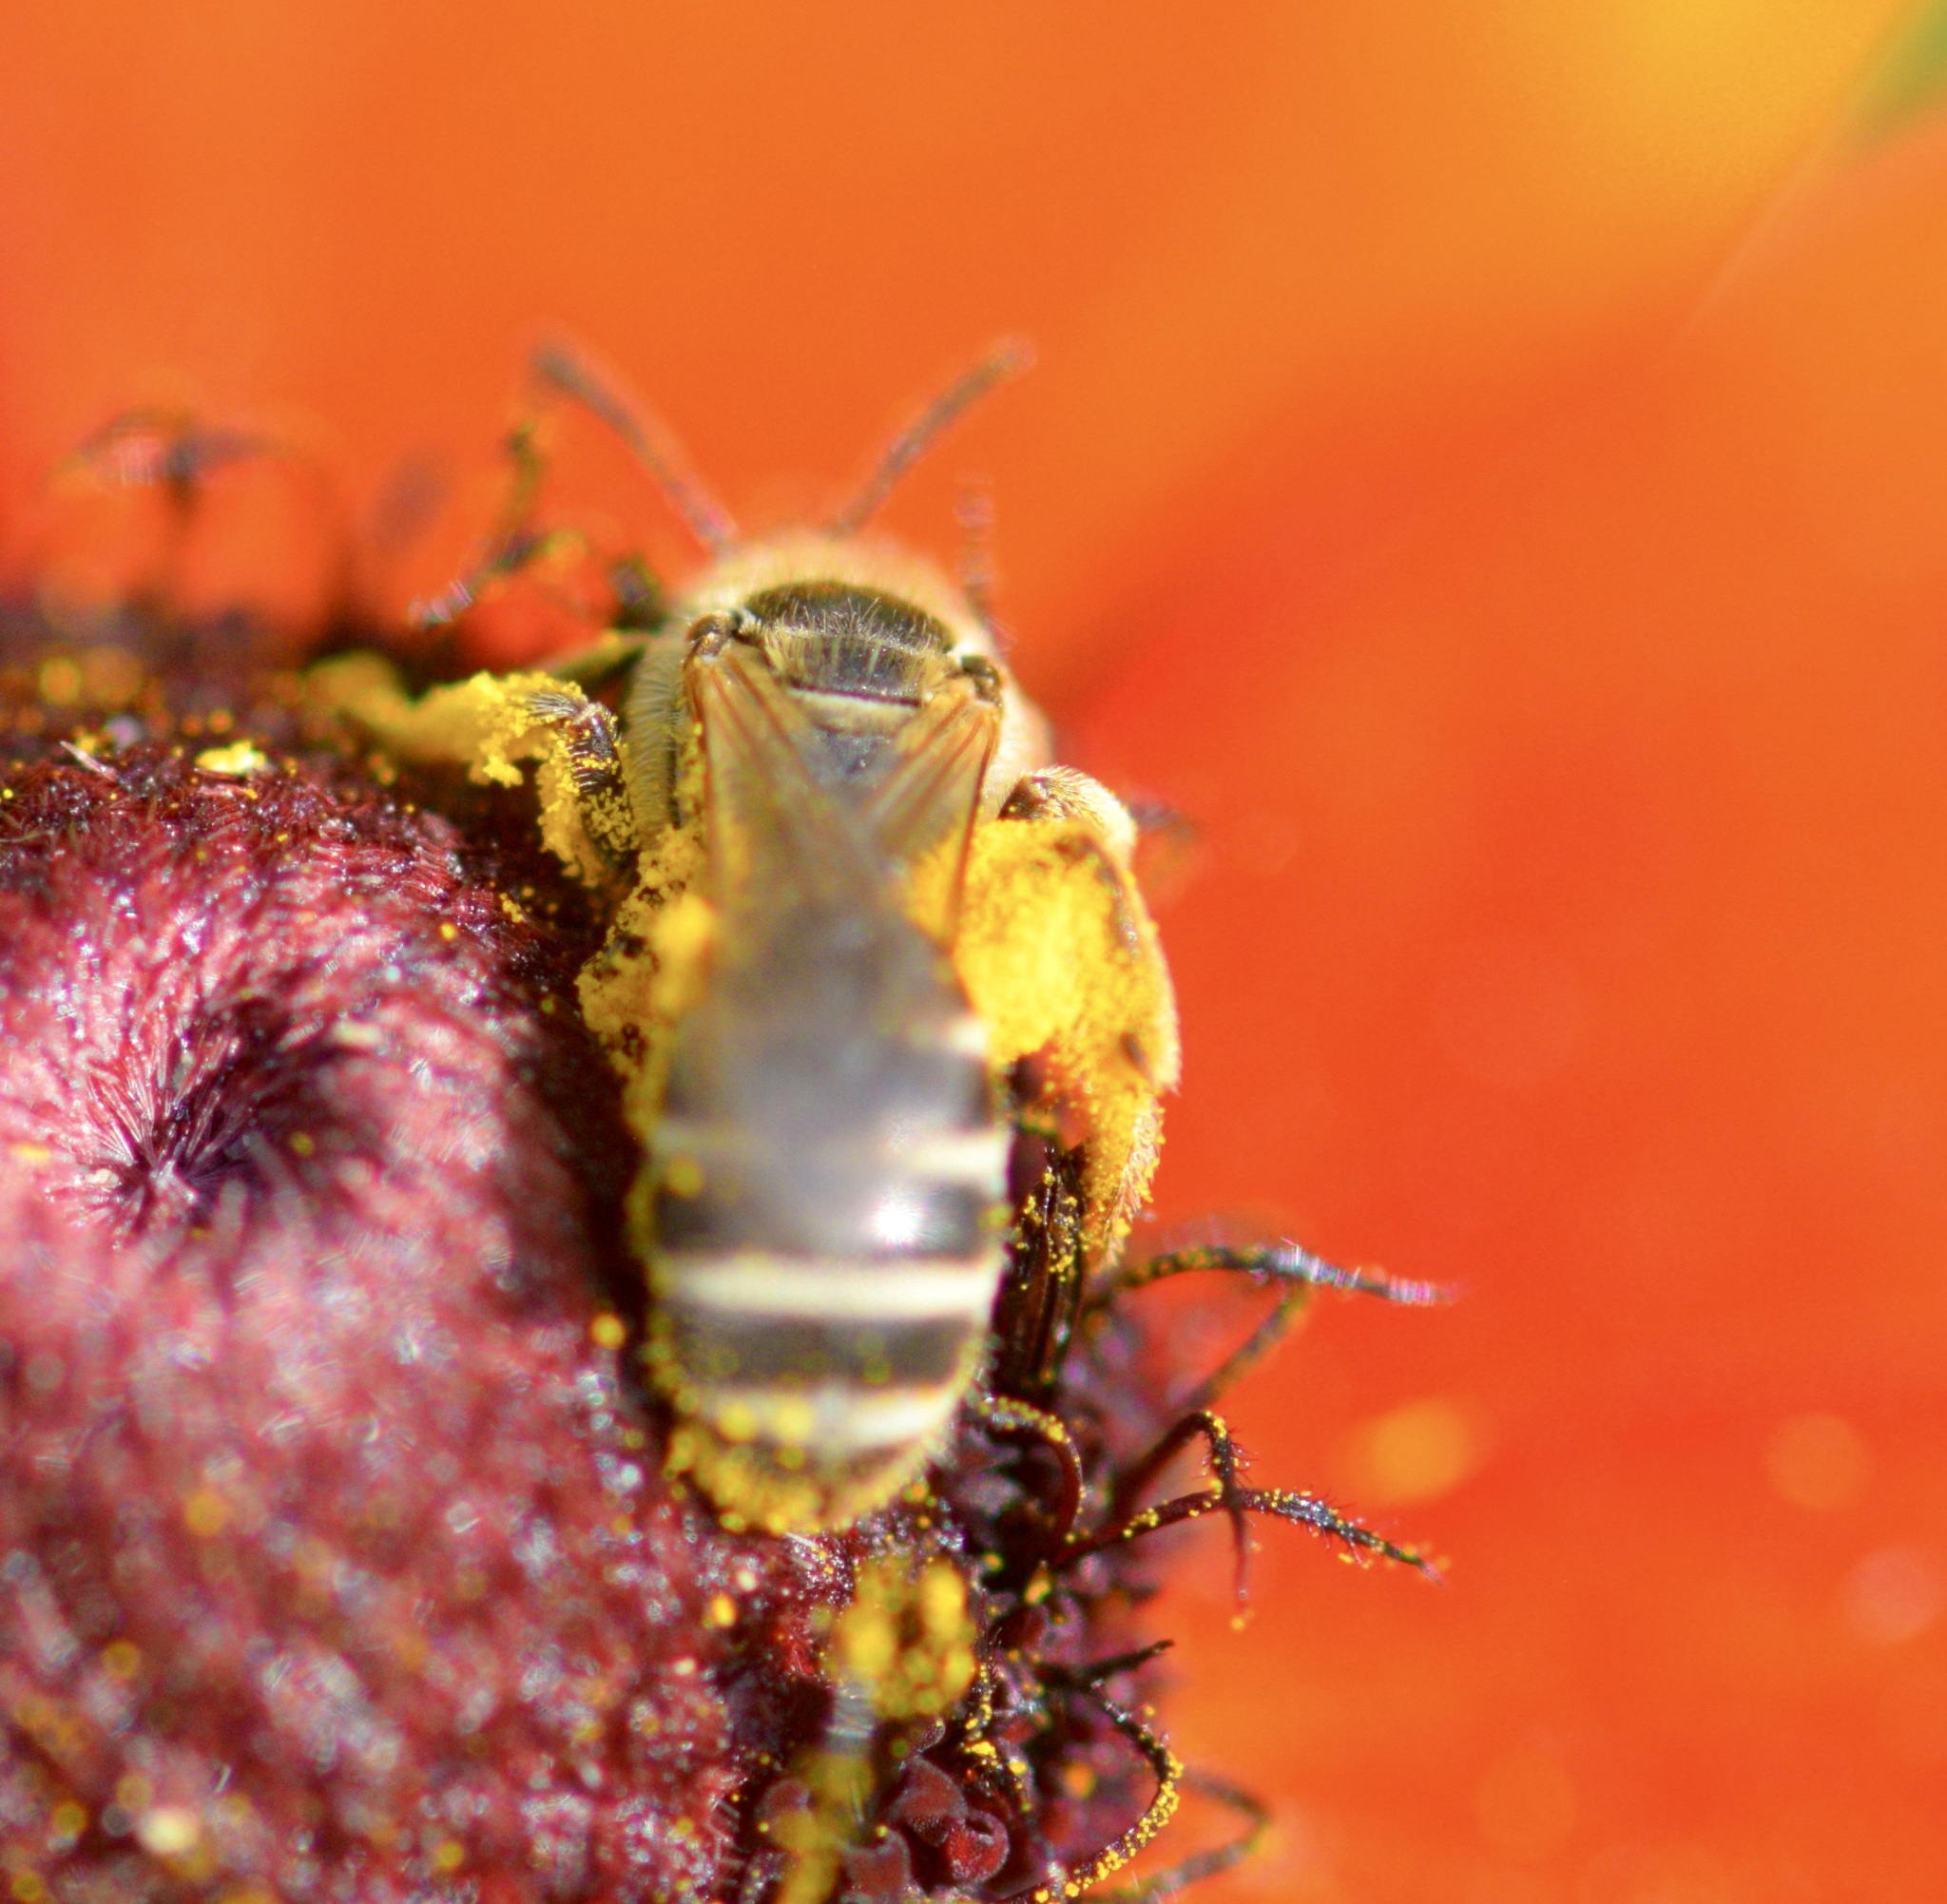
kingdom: Animalia
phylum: Arthropoda
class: Insecta
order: Hymenoptera
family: Halictidae
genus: Halictus
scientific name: Halictus ligatus
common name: Ligated furrow bee
